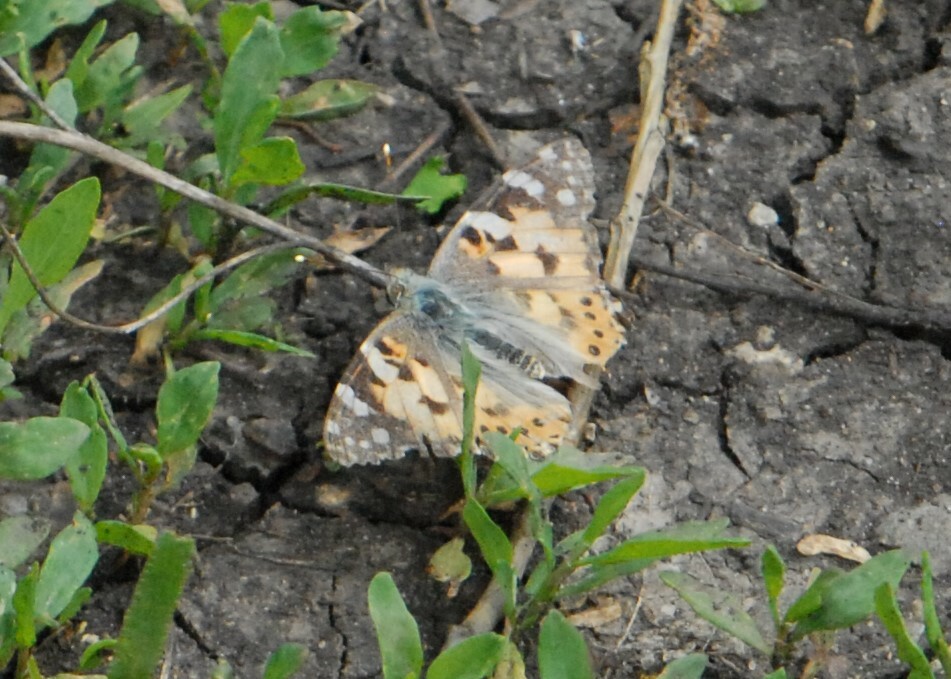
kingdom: Animalia
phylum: Arthropoda
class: Insecta
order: Lepidoptera
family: Nymphalidae
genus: Vanessa
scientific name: Vanessa cardui
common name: Painted lady
